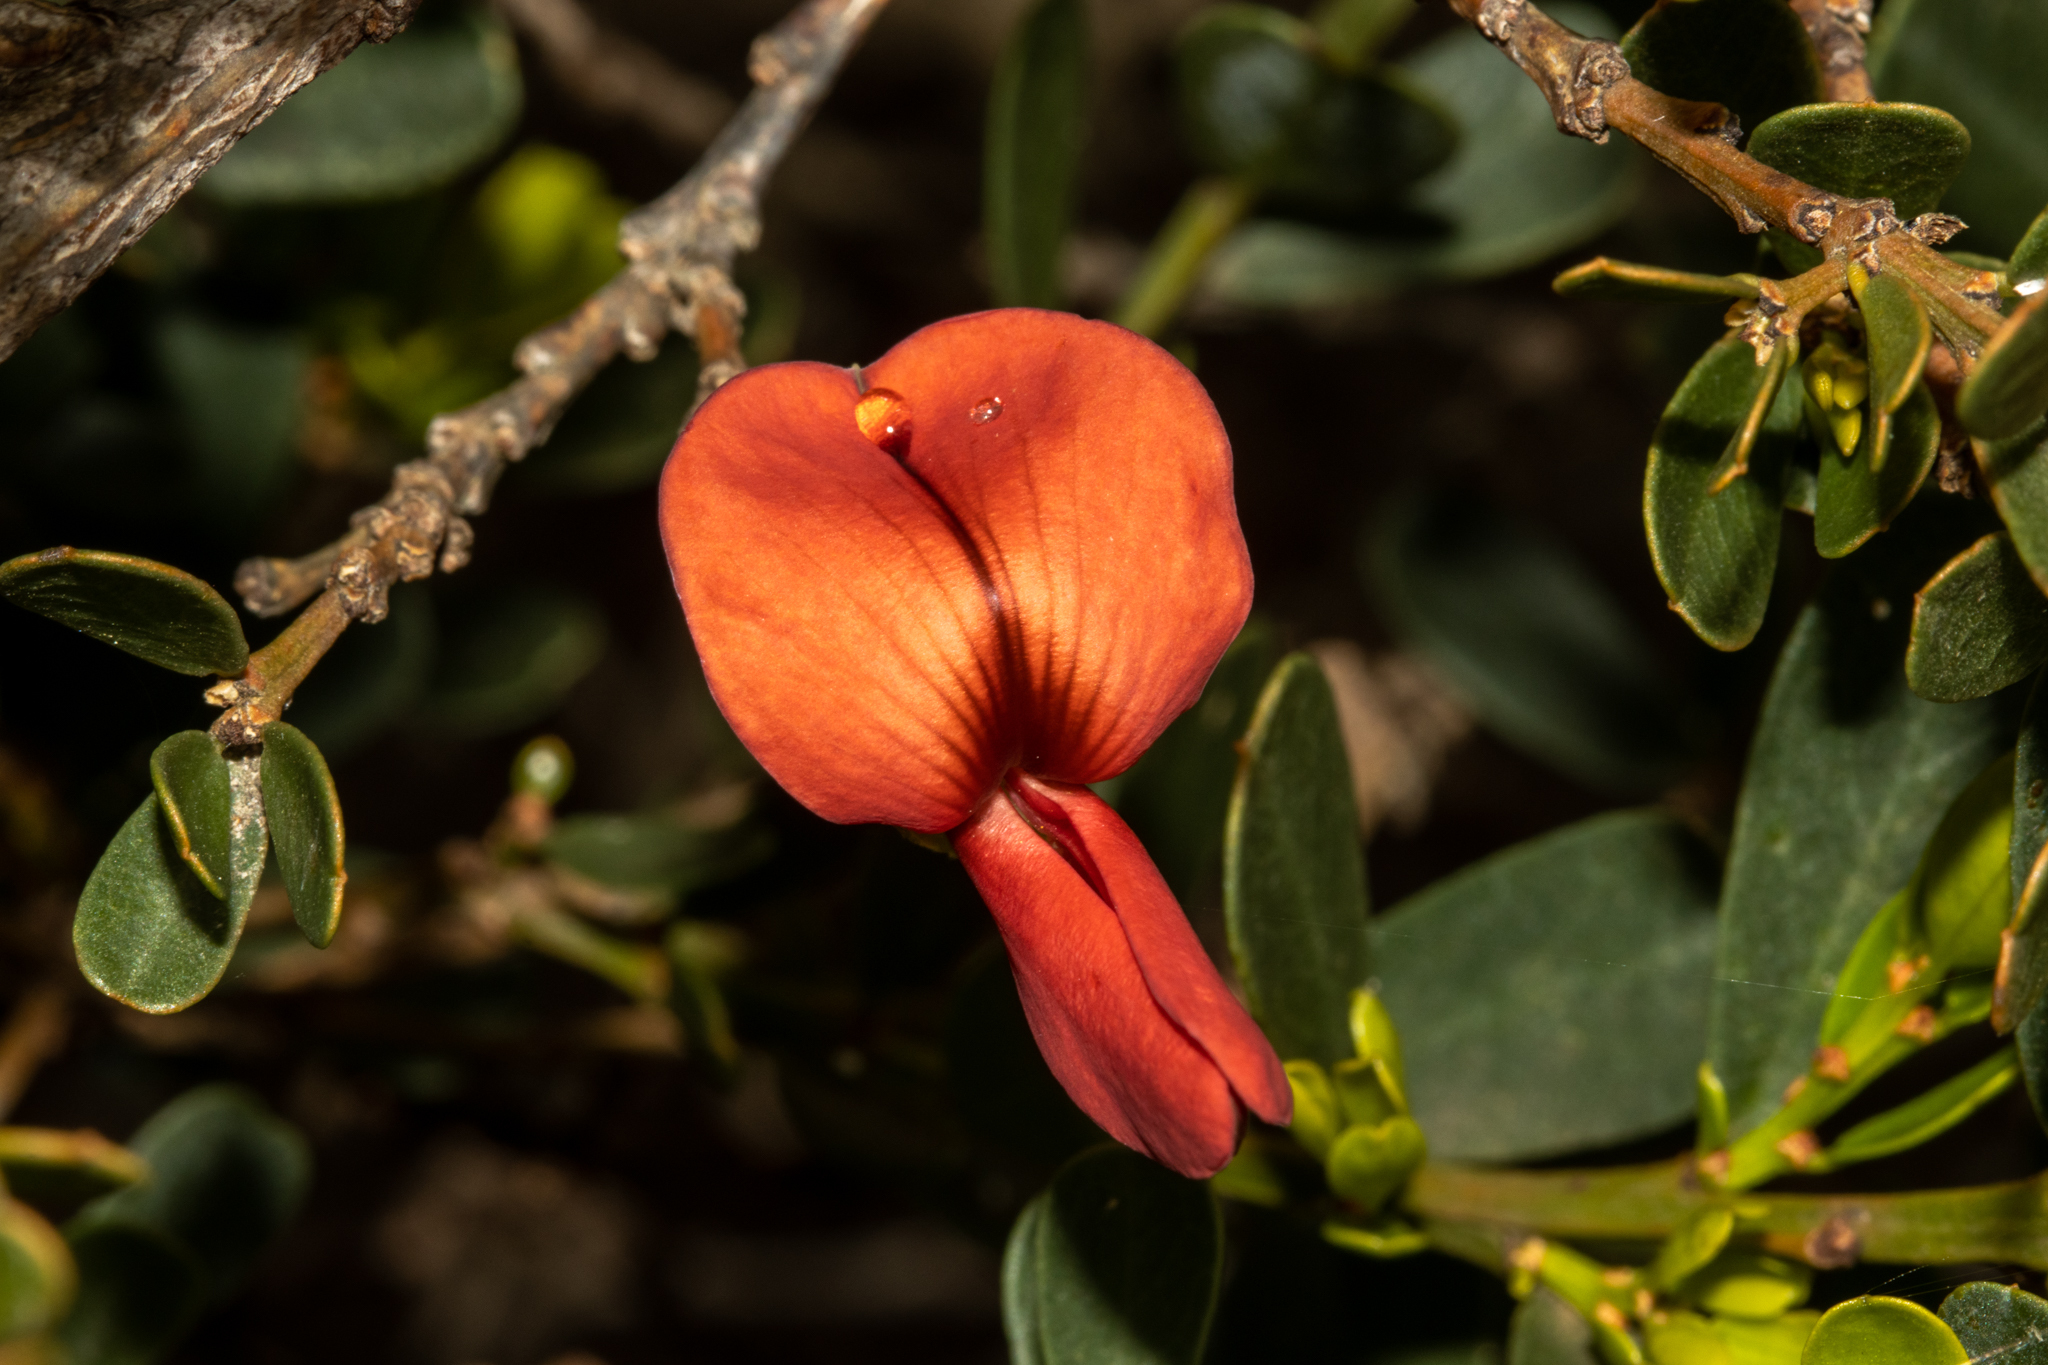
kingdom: Plantae
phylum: Tracheophyta
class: Magnoliopsida
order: Fabales
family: Fabaceae
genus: Templetonia
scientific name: Templetonia retusa
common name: Cockies'-tongue
